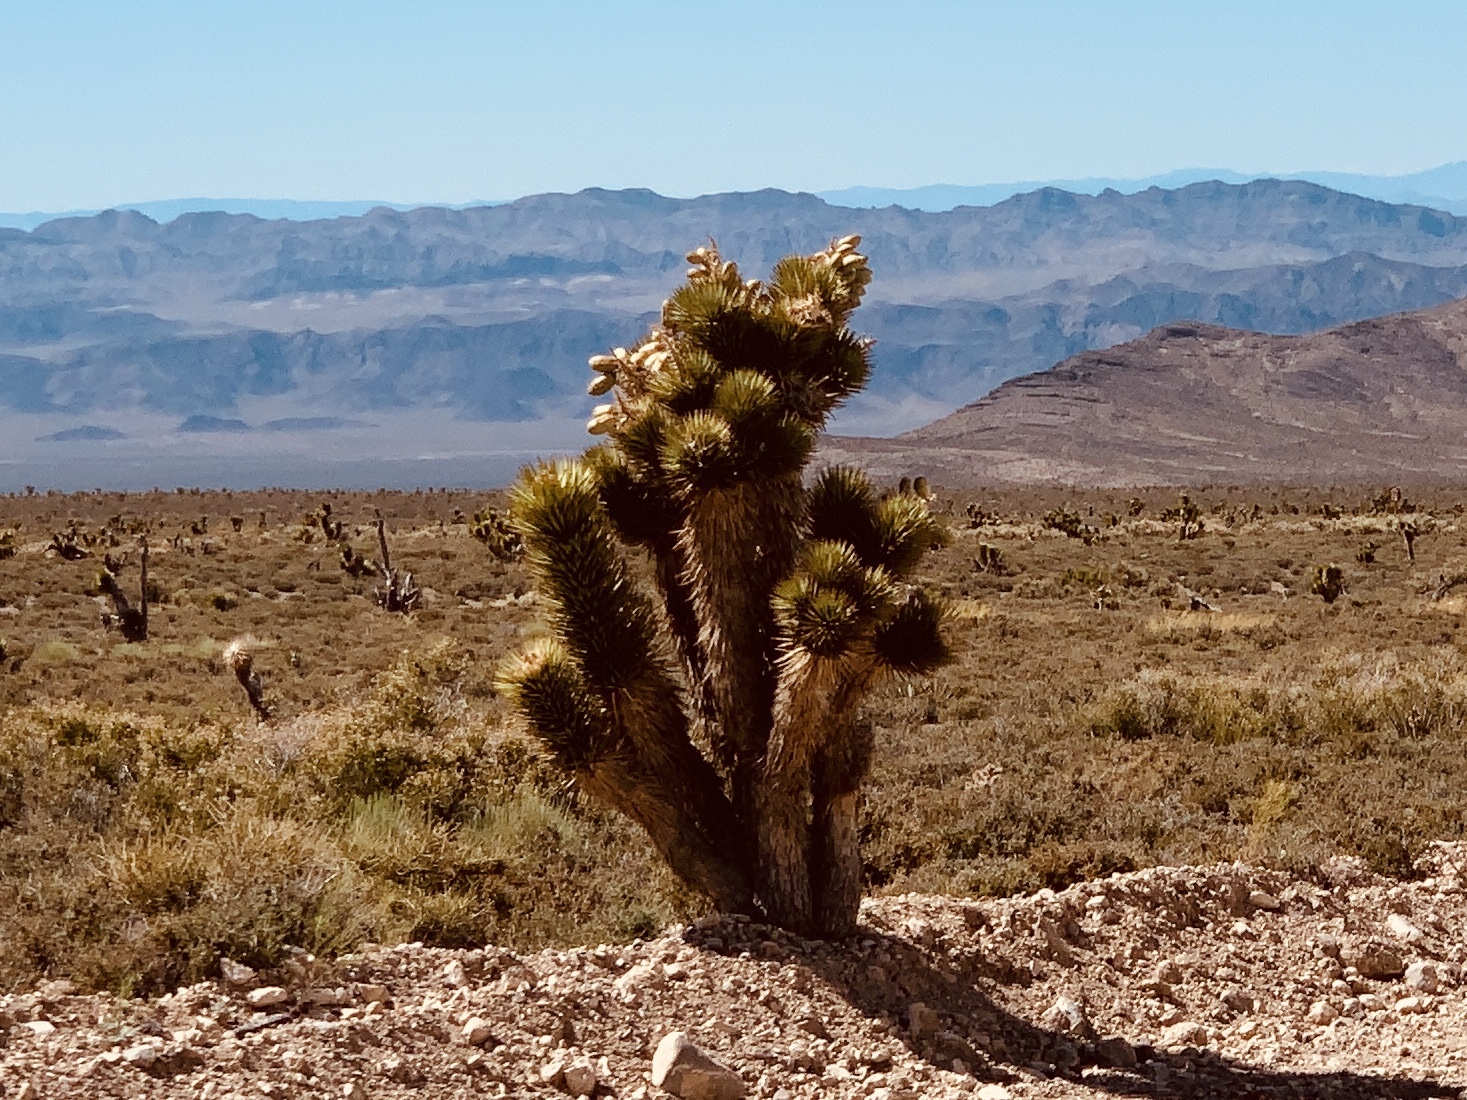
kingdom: Plantae
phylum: Tracheophyta
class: Liliopsida
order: Asparagales
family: Asparagaceae
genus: Yucca
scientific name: Yucca brevifolia
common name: Joshua tree
